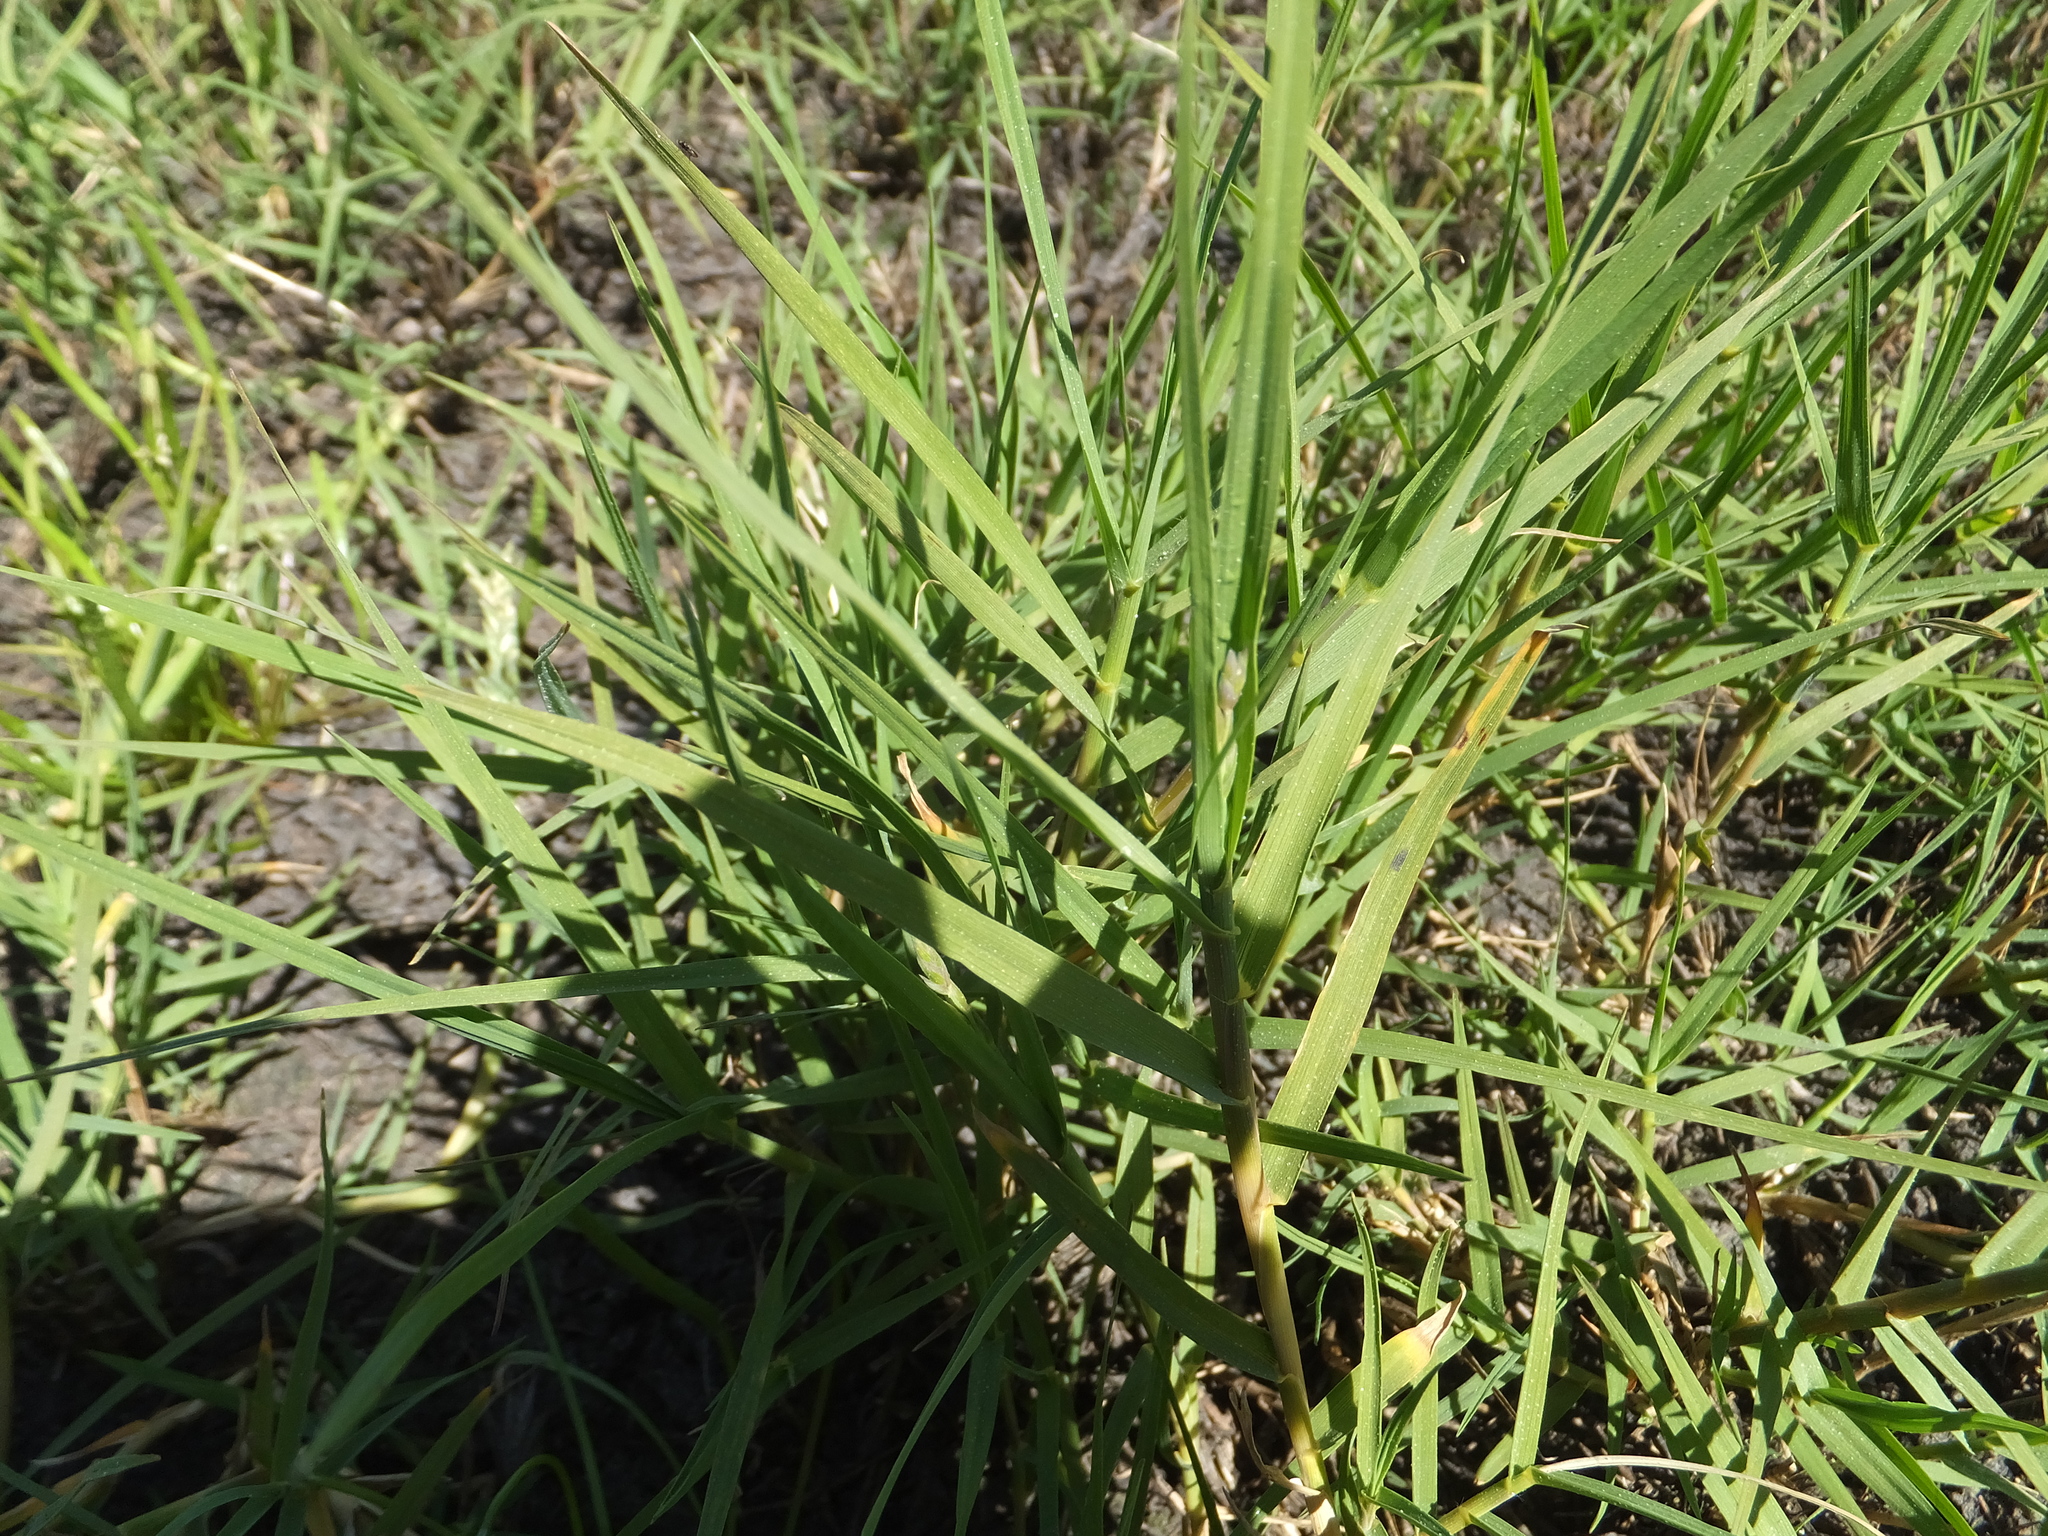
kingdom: Plantae
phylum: Tracheophyta
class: Liliopsida
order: Poales
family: Poaceae
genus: Distichlis
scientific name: Distichlis spicata
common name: Saltgrass
